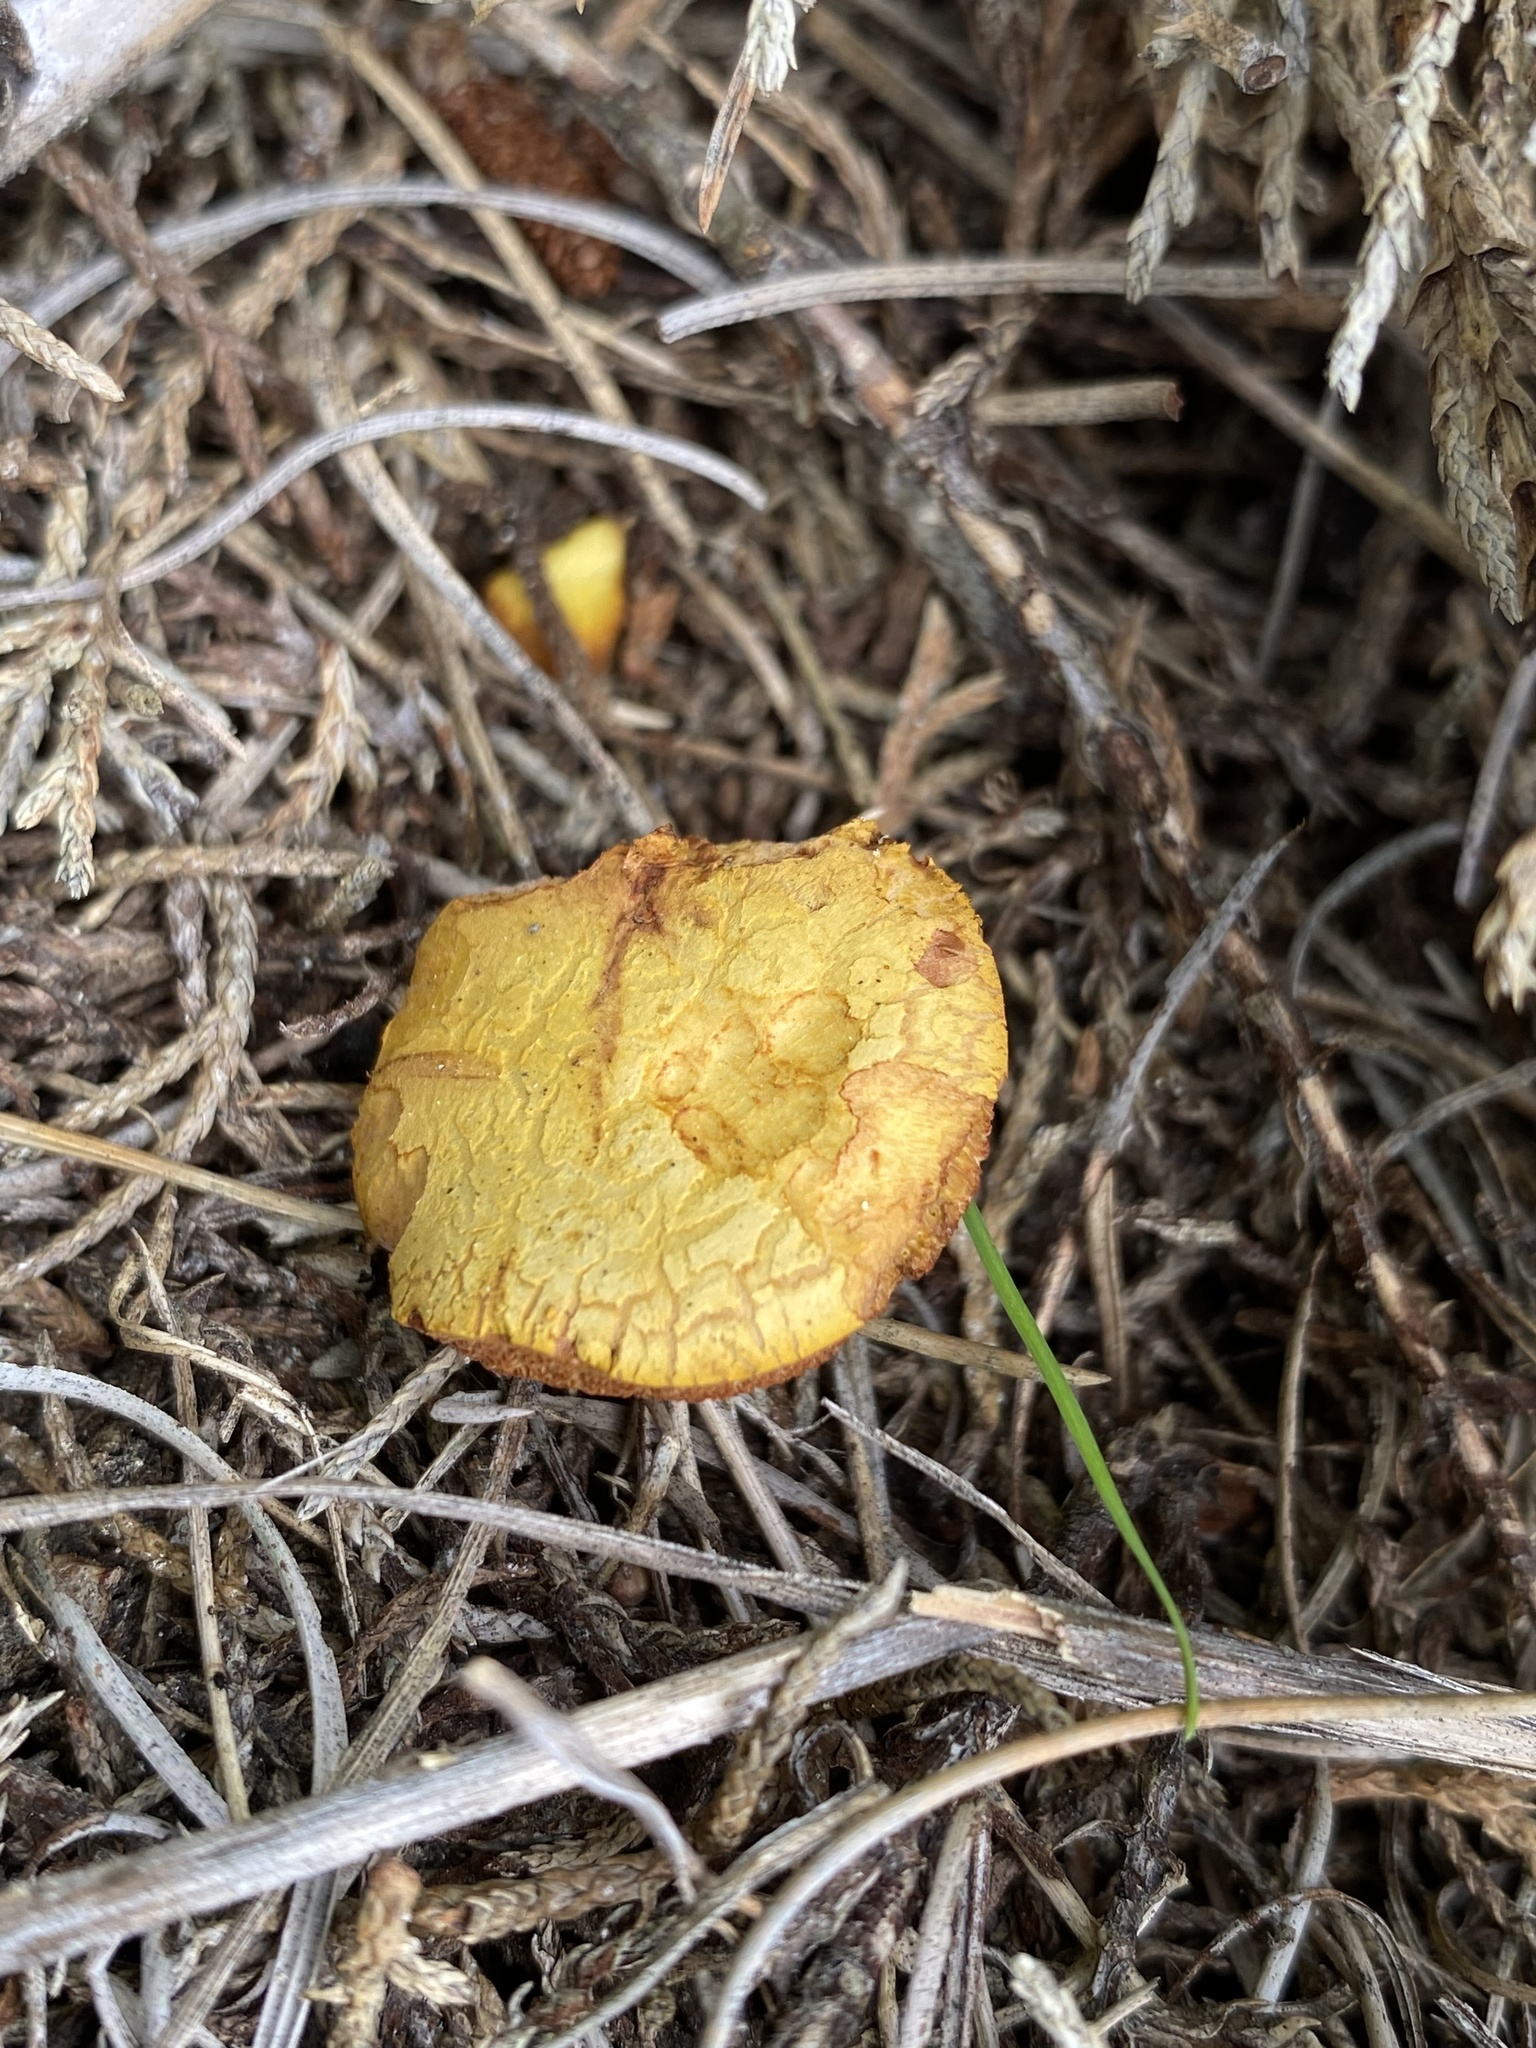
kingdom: Fungi
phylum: Basidiomycota
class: Agaricomycetes
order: Boletales
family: Boletaceae
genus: Chalciporus
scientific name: Chalciporus piperatus
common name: Peppery bolete
